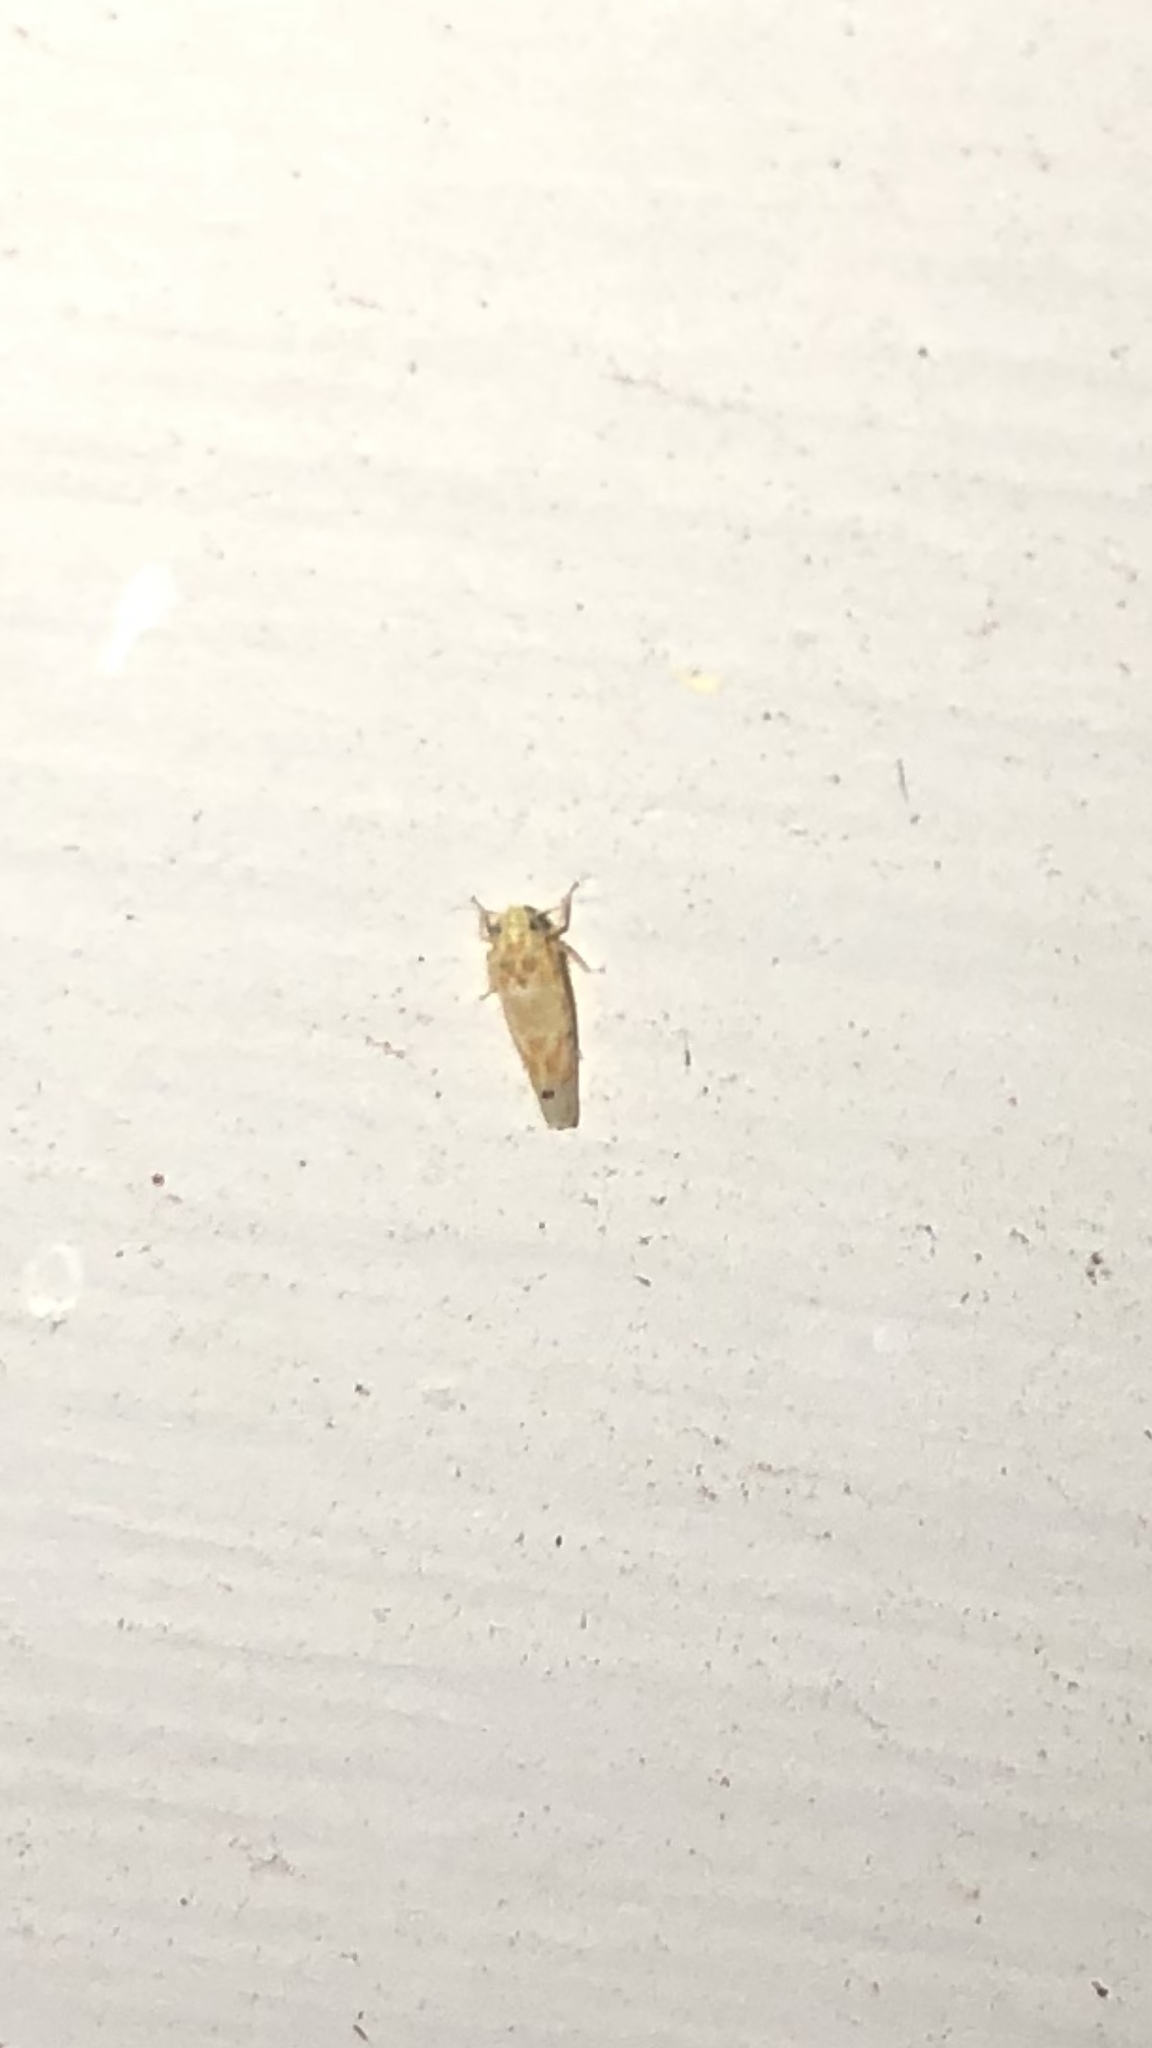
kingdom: Animalia
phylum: Arthropoda
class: Insecta
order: Hemiptera
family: Cicadellidae
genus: Eratoneura
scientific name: Eratoneura
